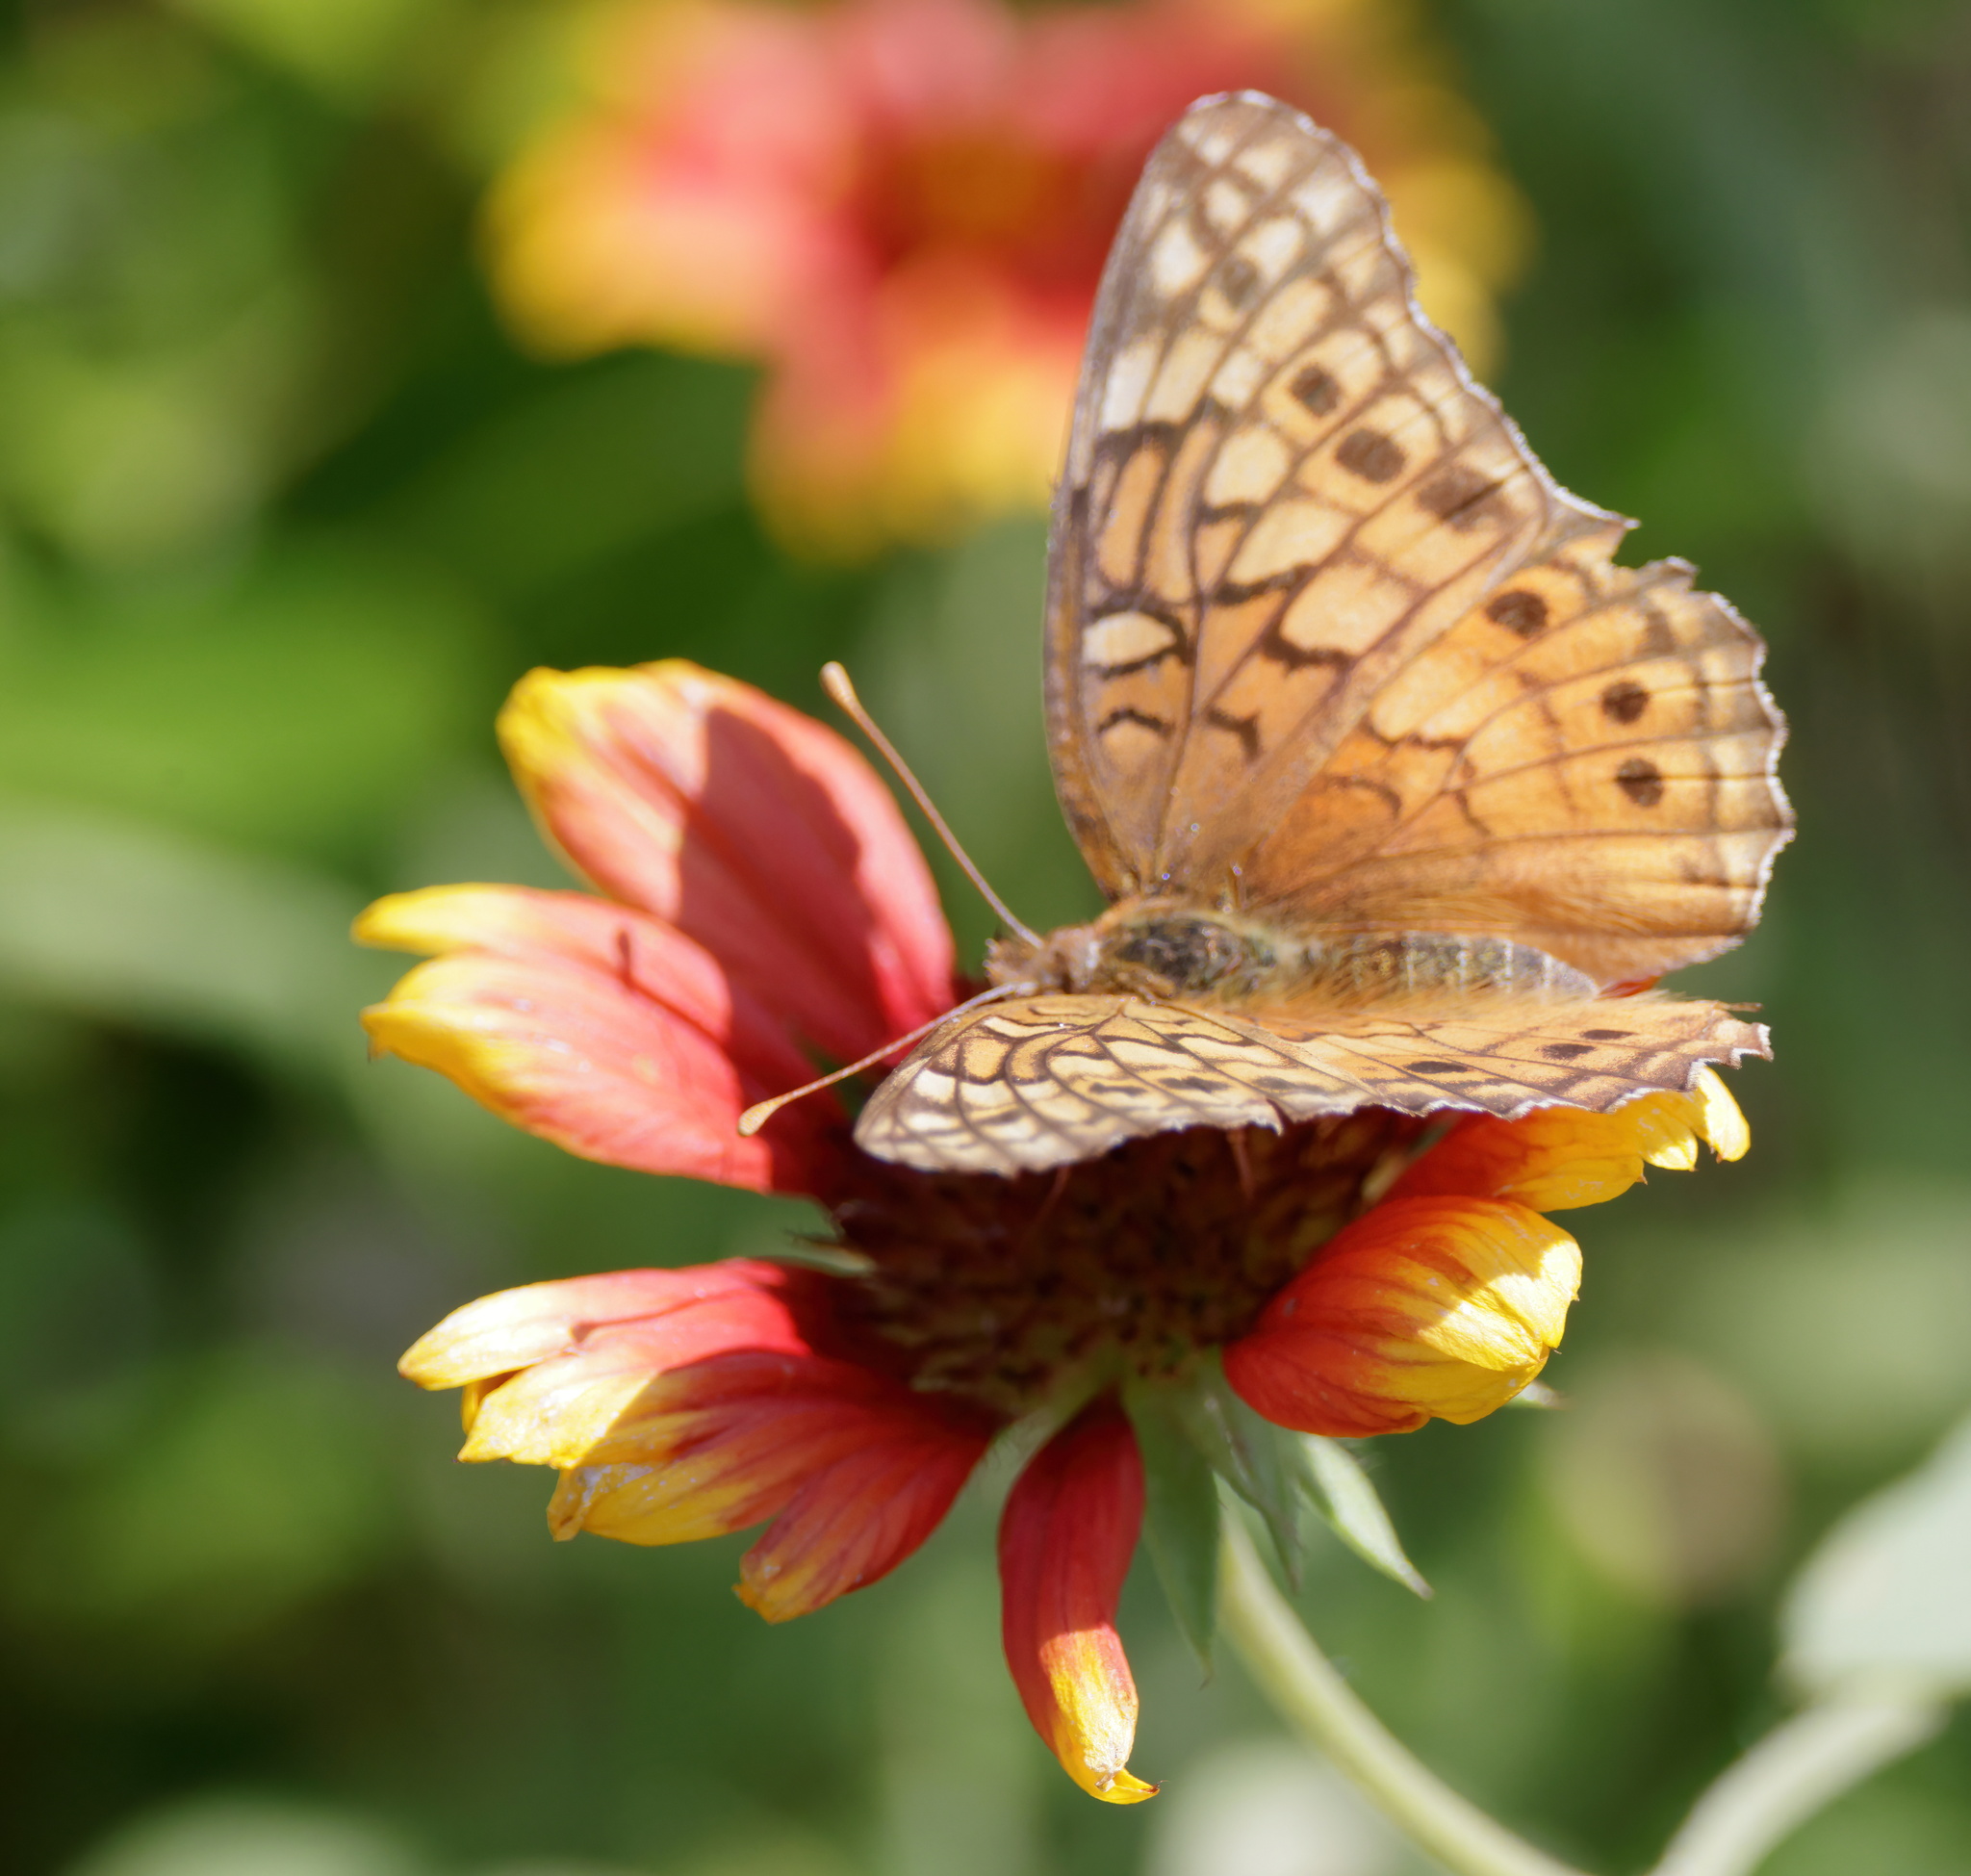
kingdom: Animalia
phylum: Arthropoda
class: Insecta
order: Lepidoptera
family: Nymphalidae
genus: Euptoieta
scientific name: Euptoieta claudia
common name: Variegated fritillary
